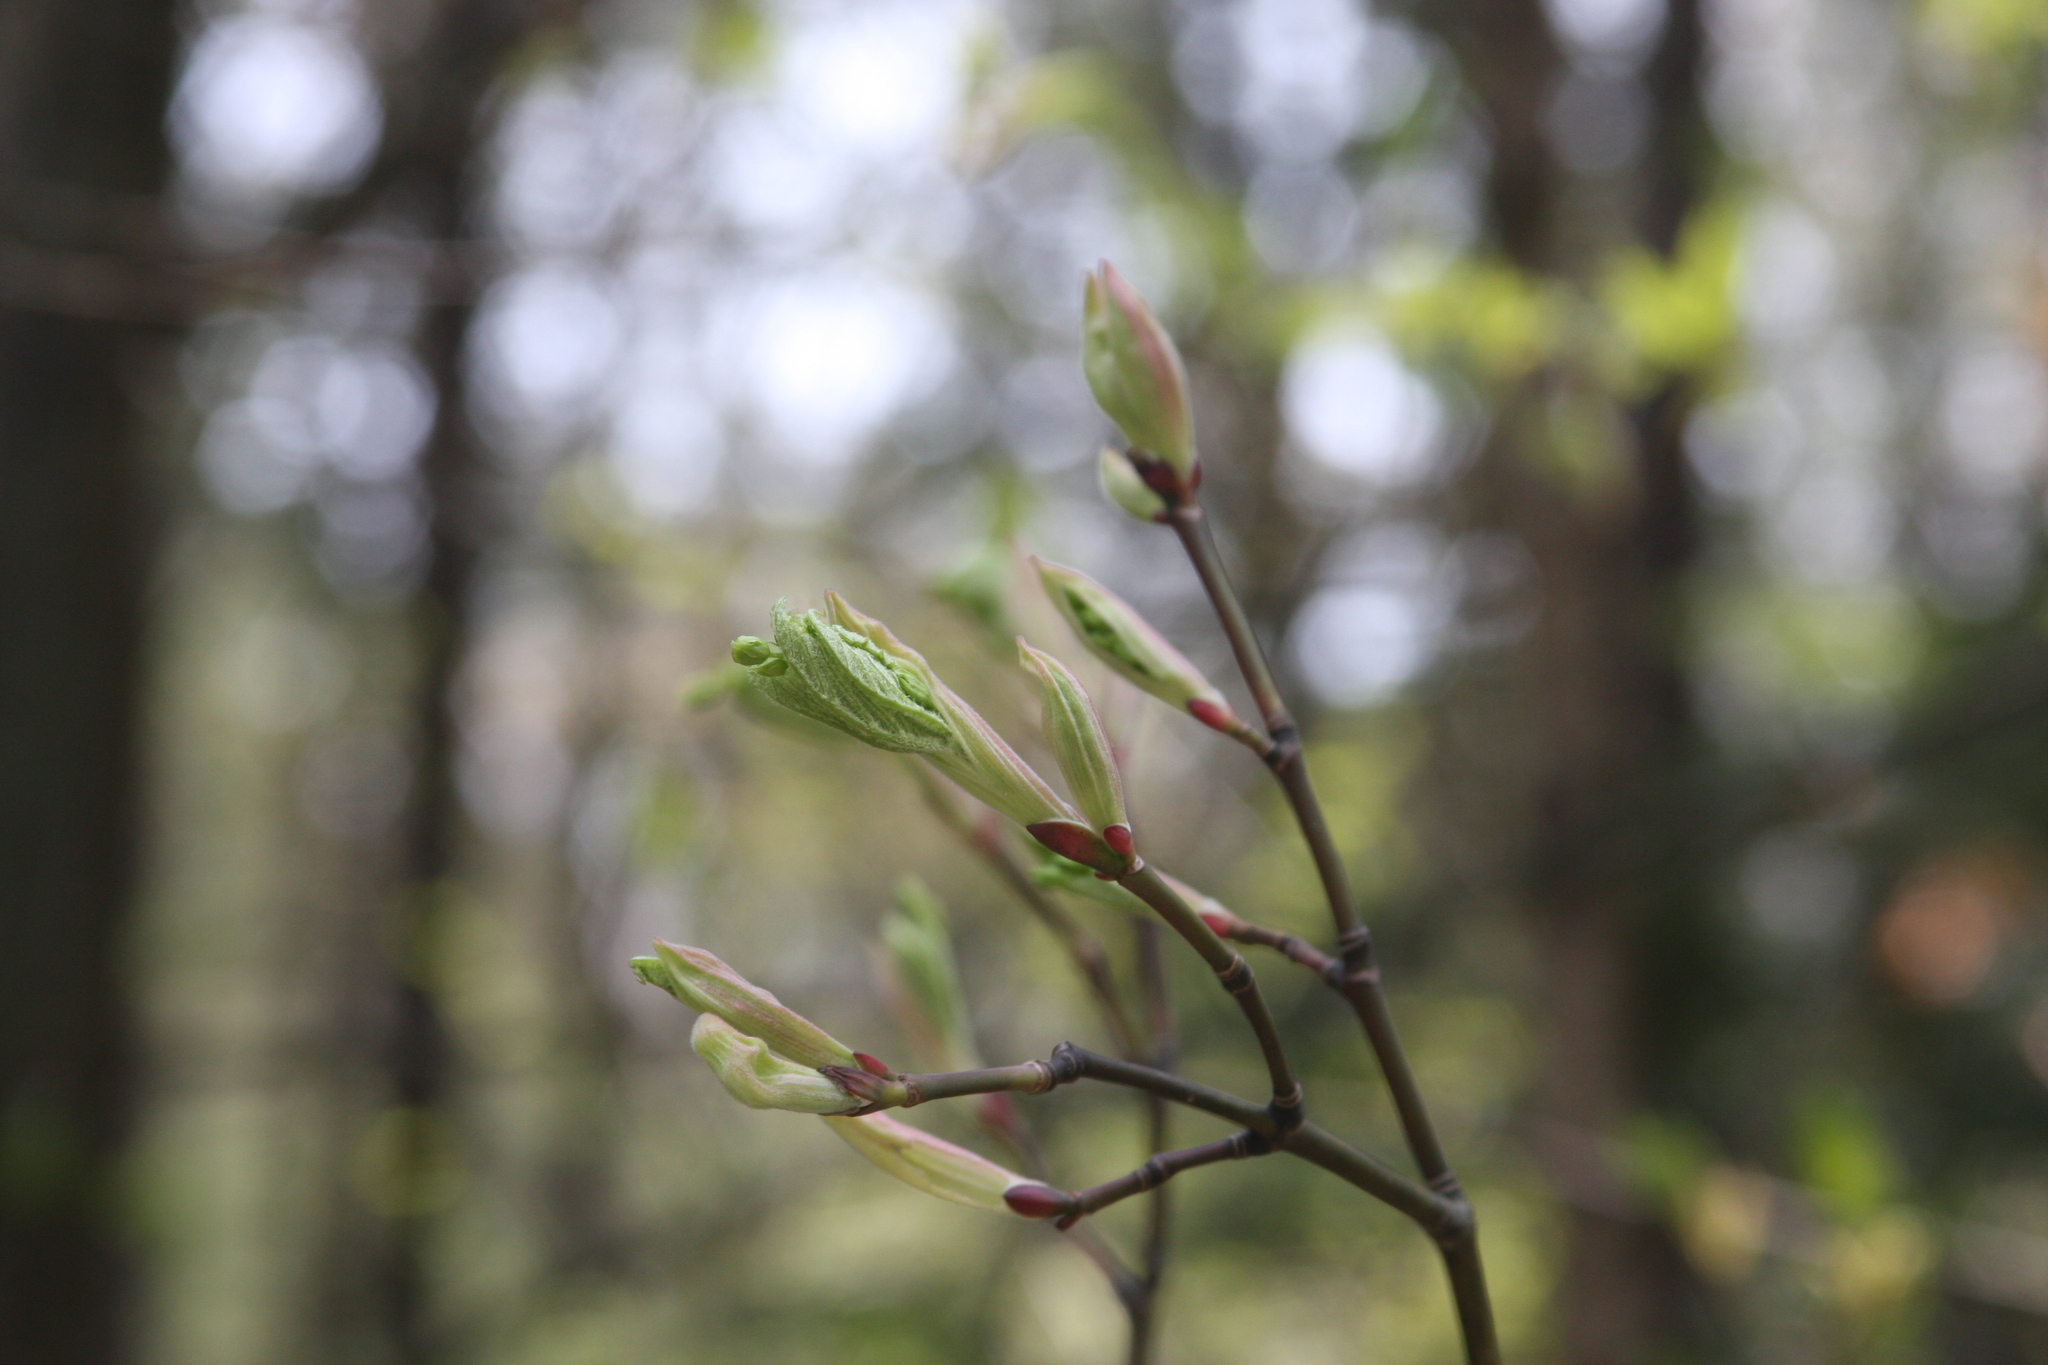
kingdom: Plantae
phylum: Tracheophyta
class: Magnoliopsida
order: Sapindales
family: Sapindaceae
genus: Acer
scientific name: Acer pensylvanicum
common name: Moosewood
